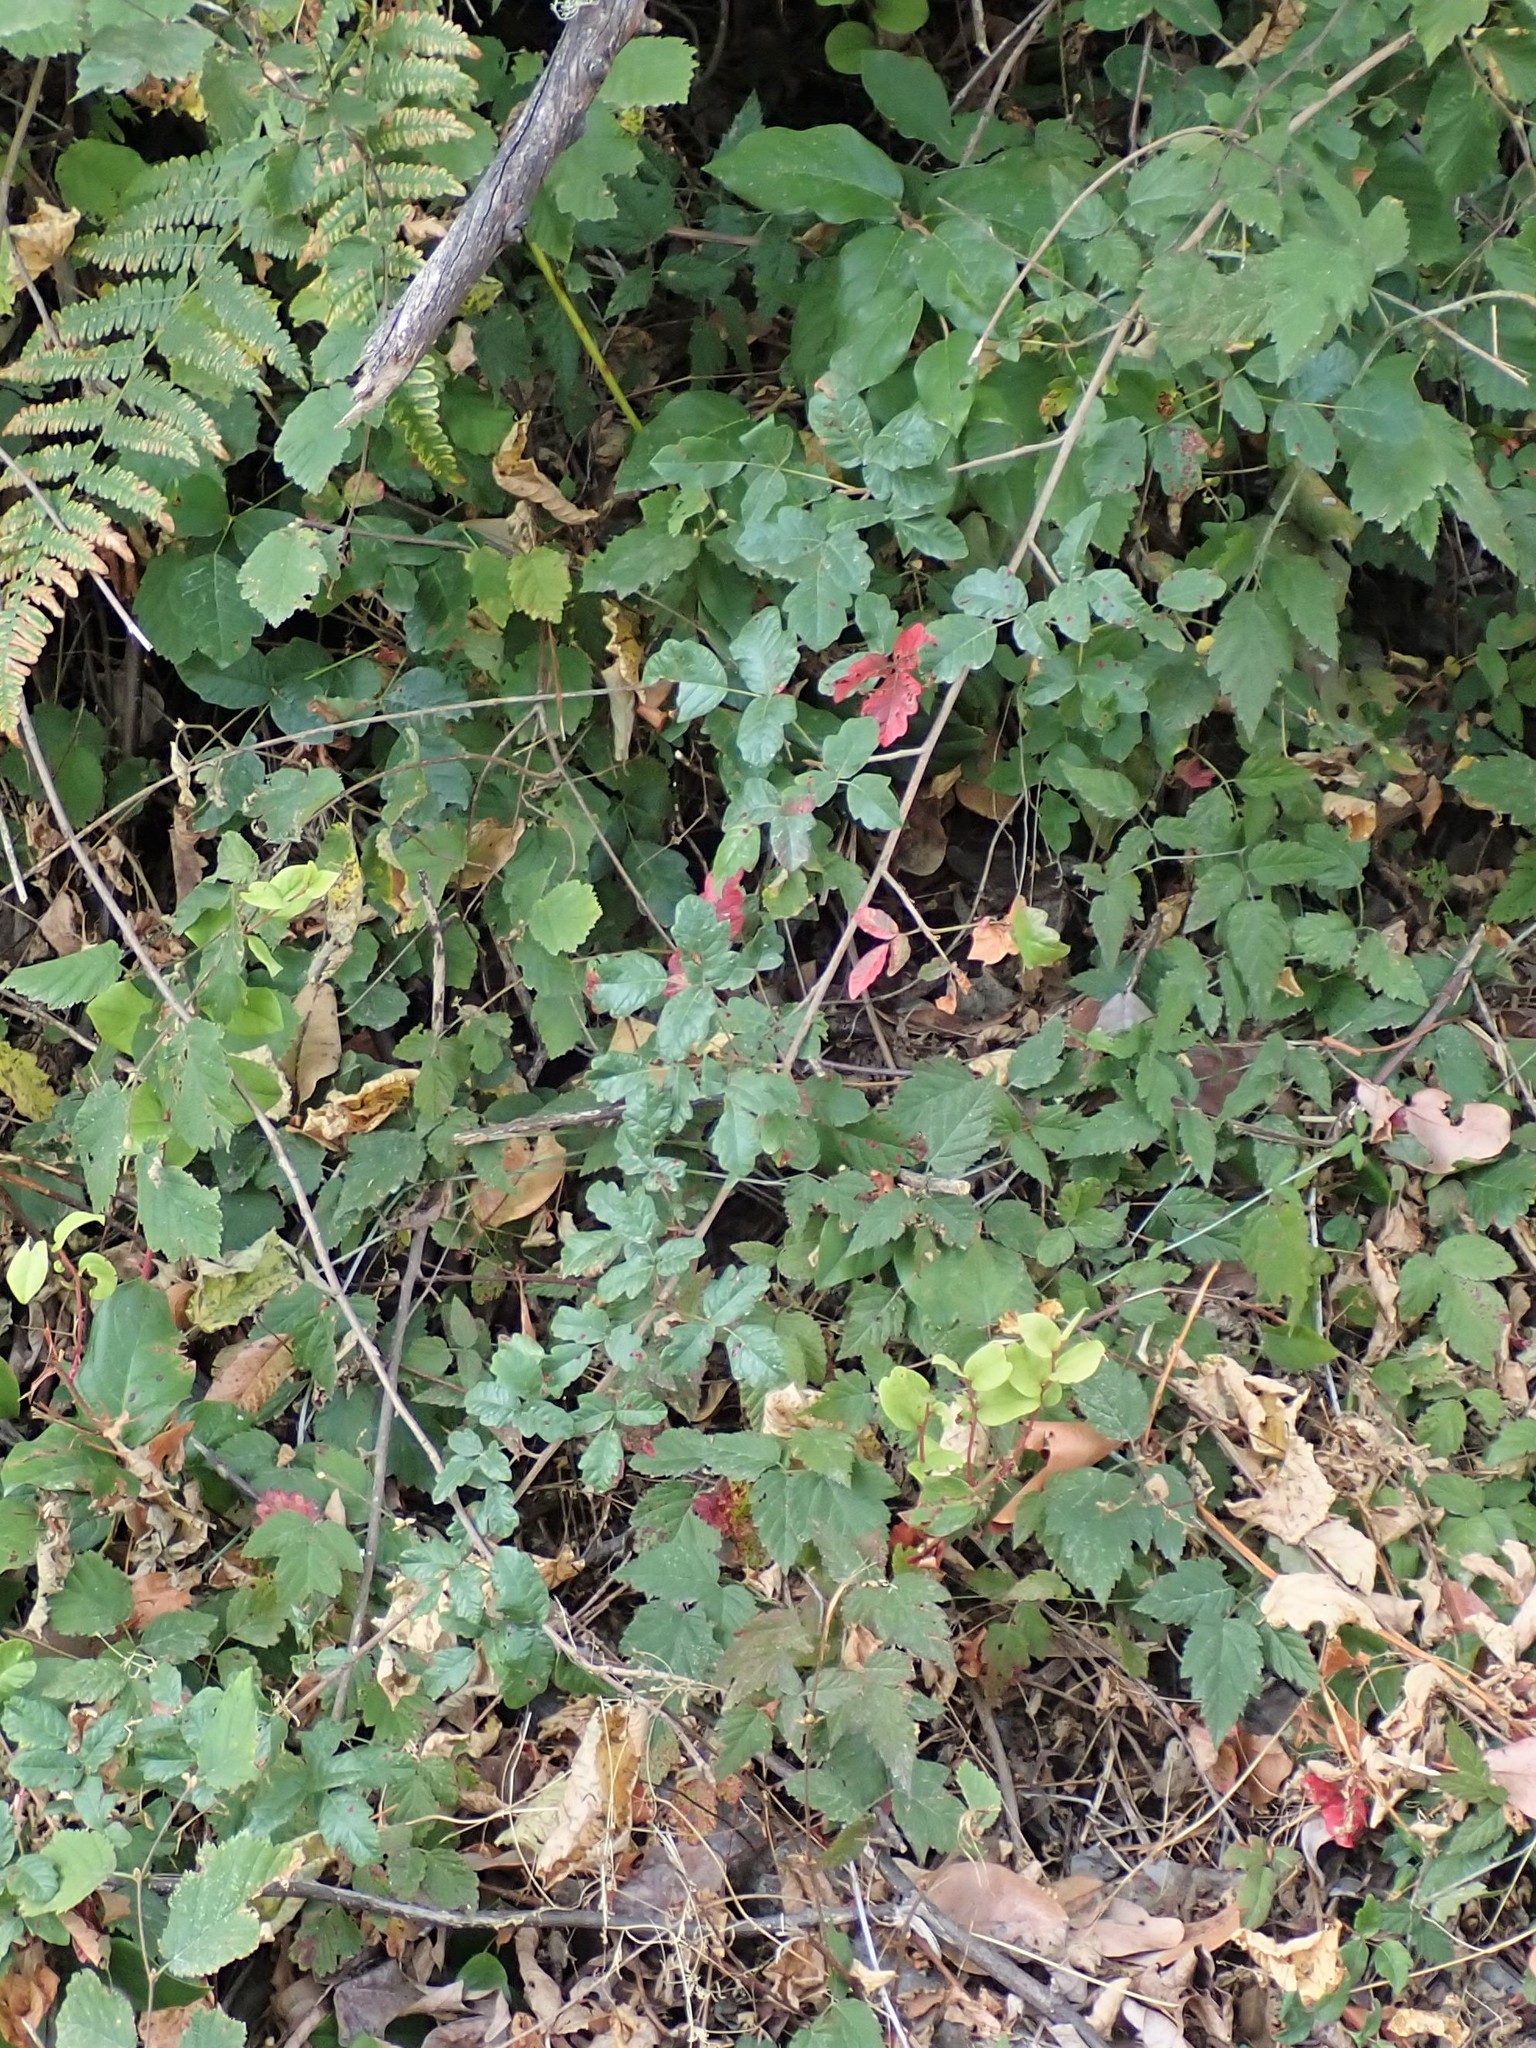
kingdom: Plantae
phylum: Tracheophyta
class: Magnoliopsida
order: Sapindales
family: Anacardiaceae
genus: Toxicodendron
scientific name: Toxicodendron diversilobum
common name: Pacific poison-oak
